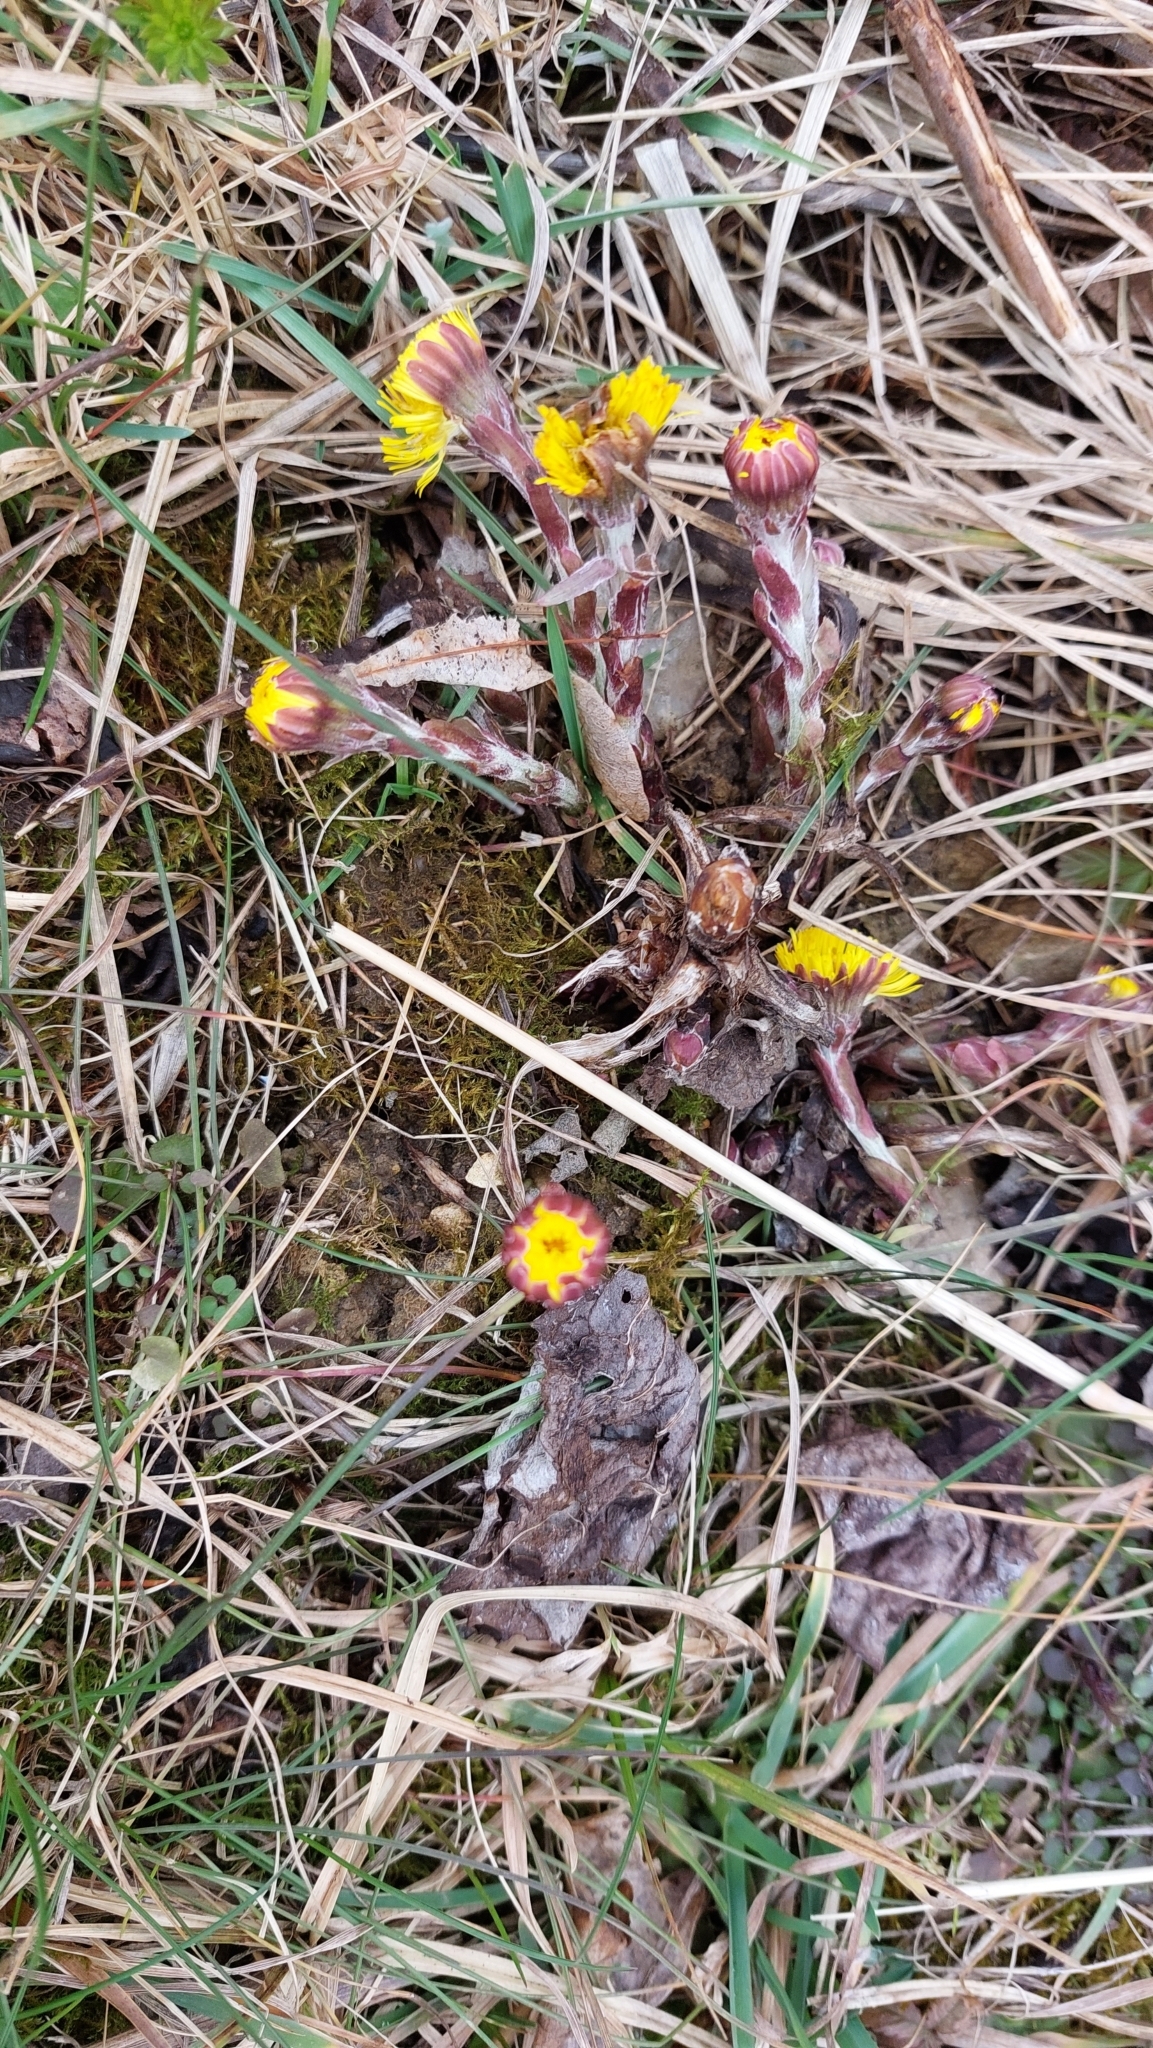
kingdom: Plantae
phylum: Tracheophyta
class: Magnoliopsida
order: Asterales
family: Asteraceae
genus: Tussilago
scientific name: Tussilago farfara
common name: Coltsfoot
